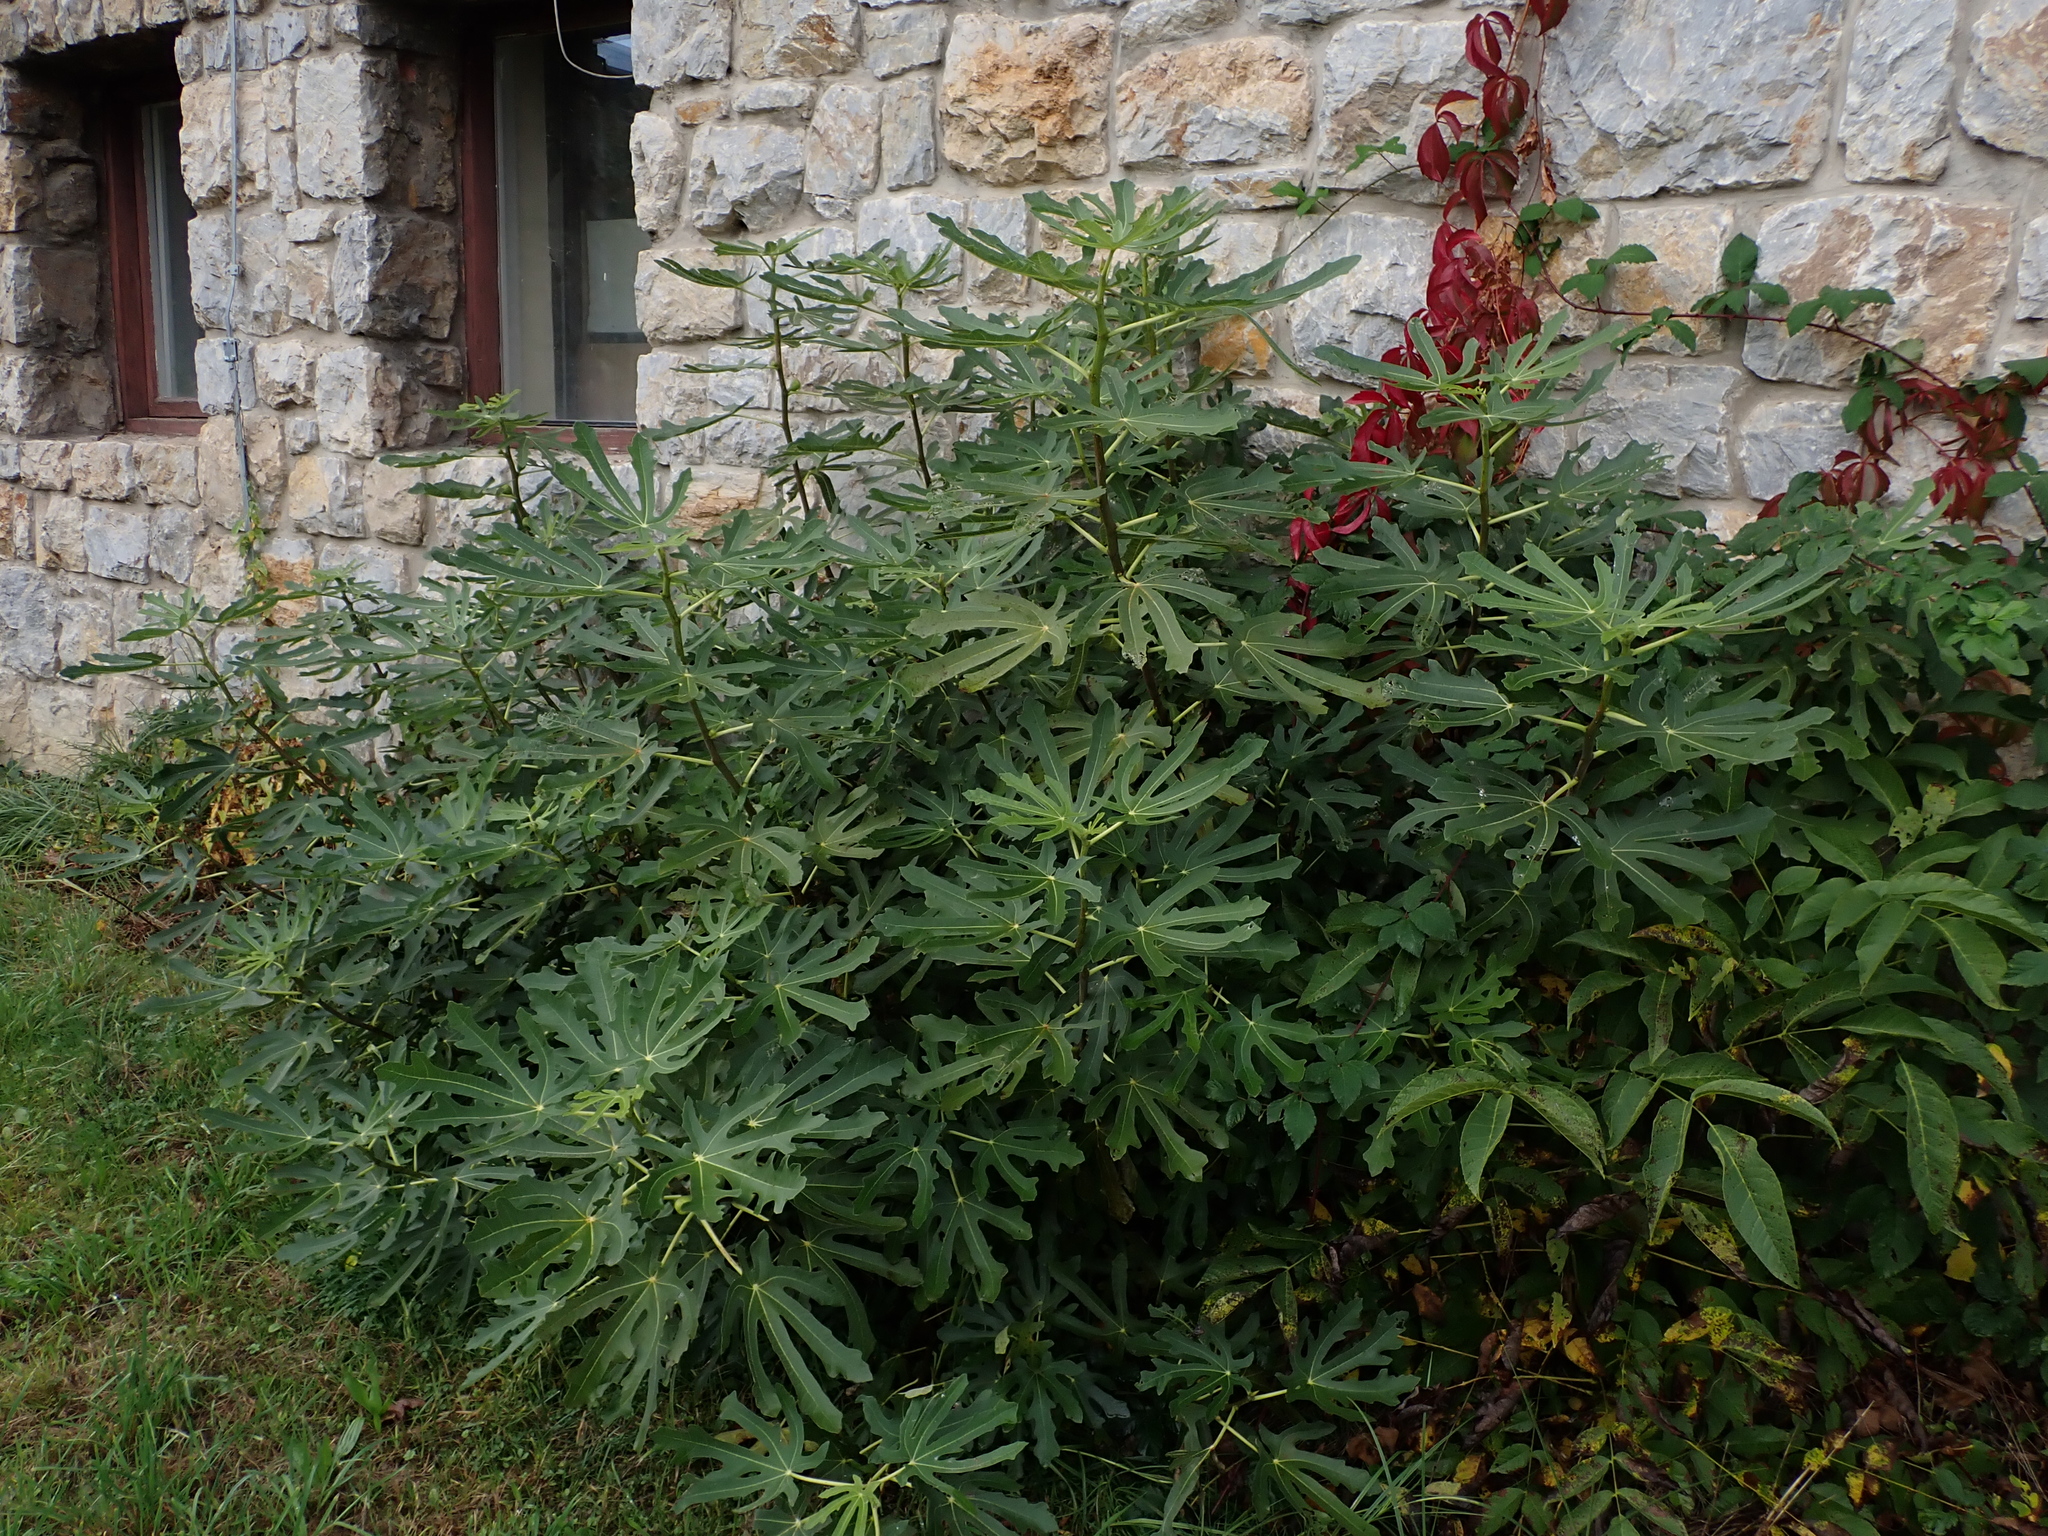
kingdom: Plantae
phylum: Tracheophyta
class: Magnoliopsida
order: Rosales
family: Moraceae
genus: Ficus
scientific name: Ficus carica
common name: Fig
